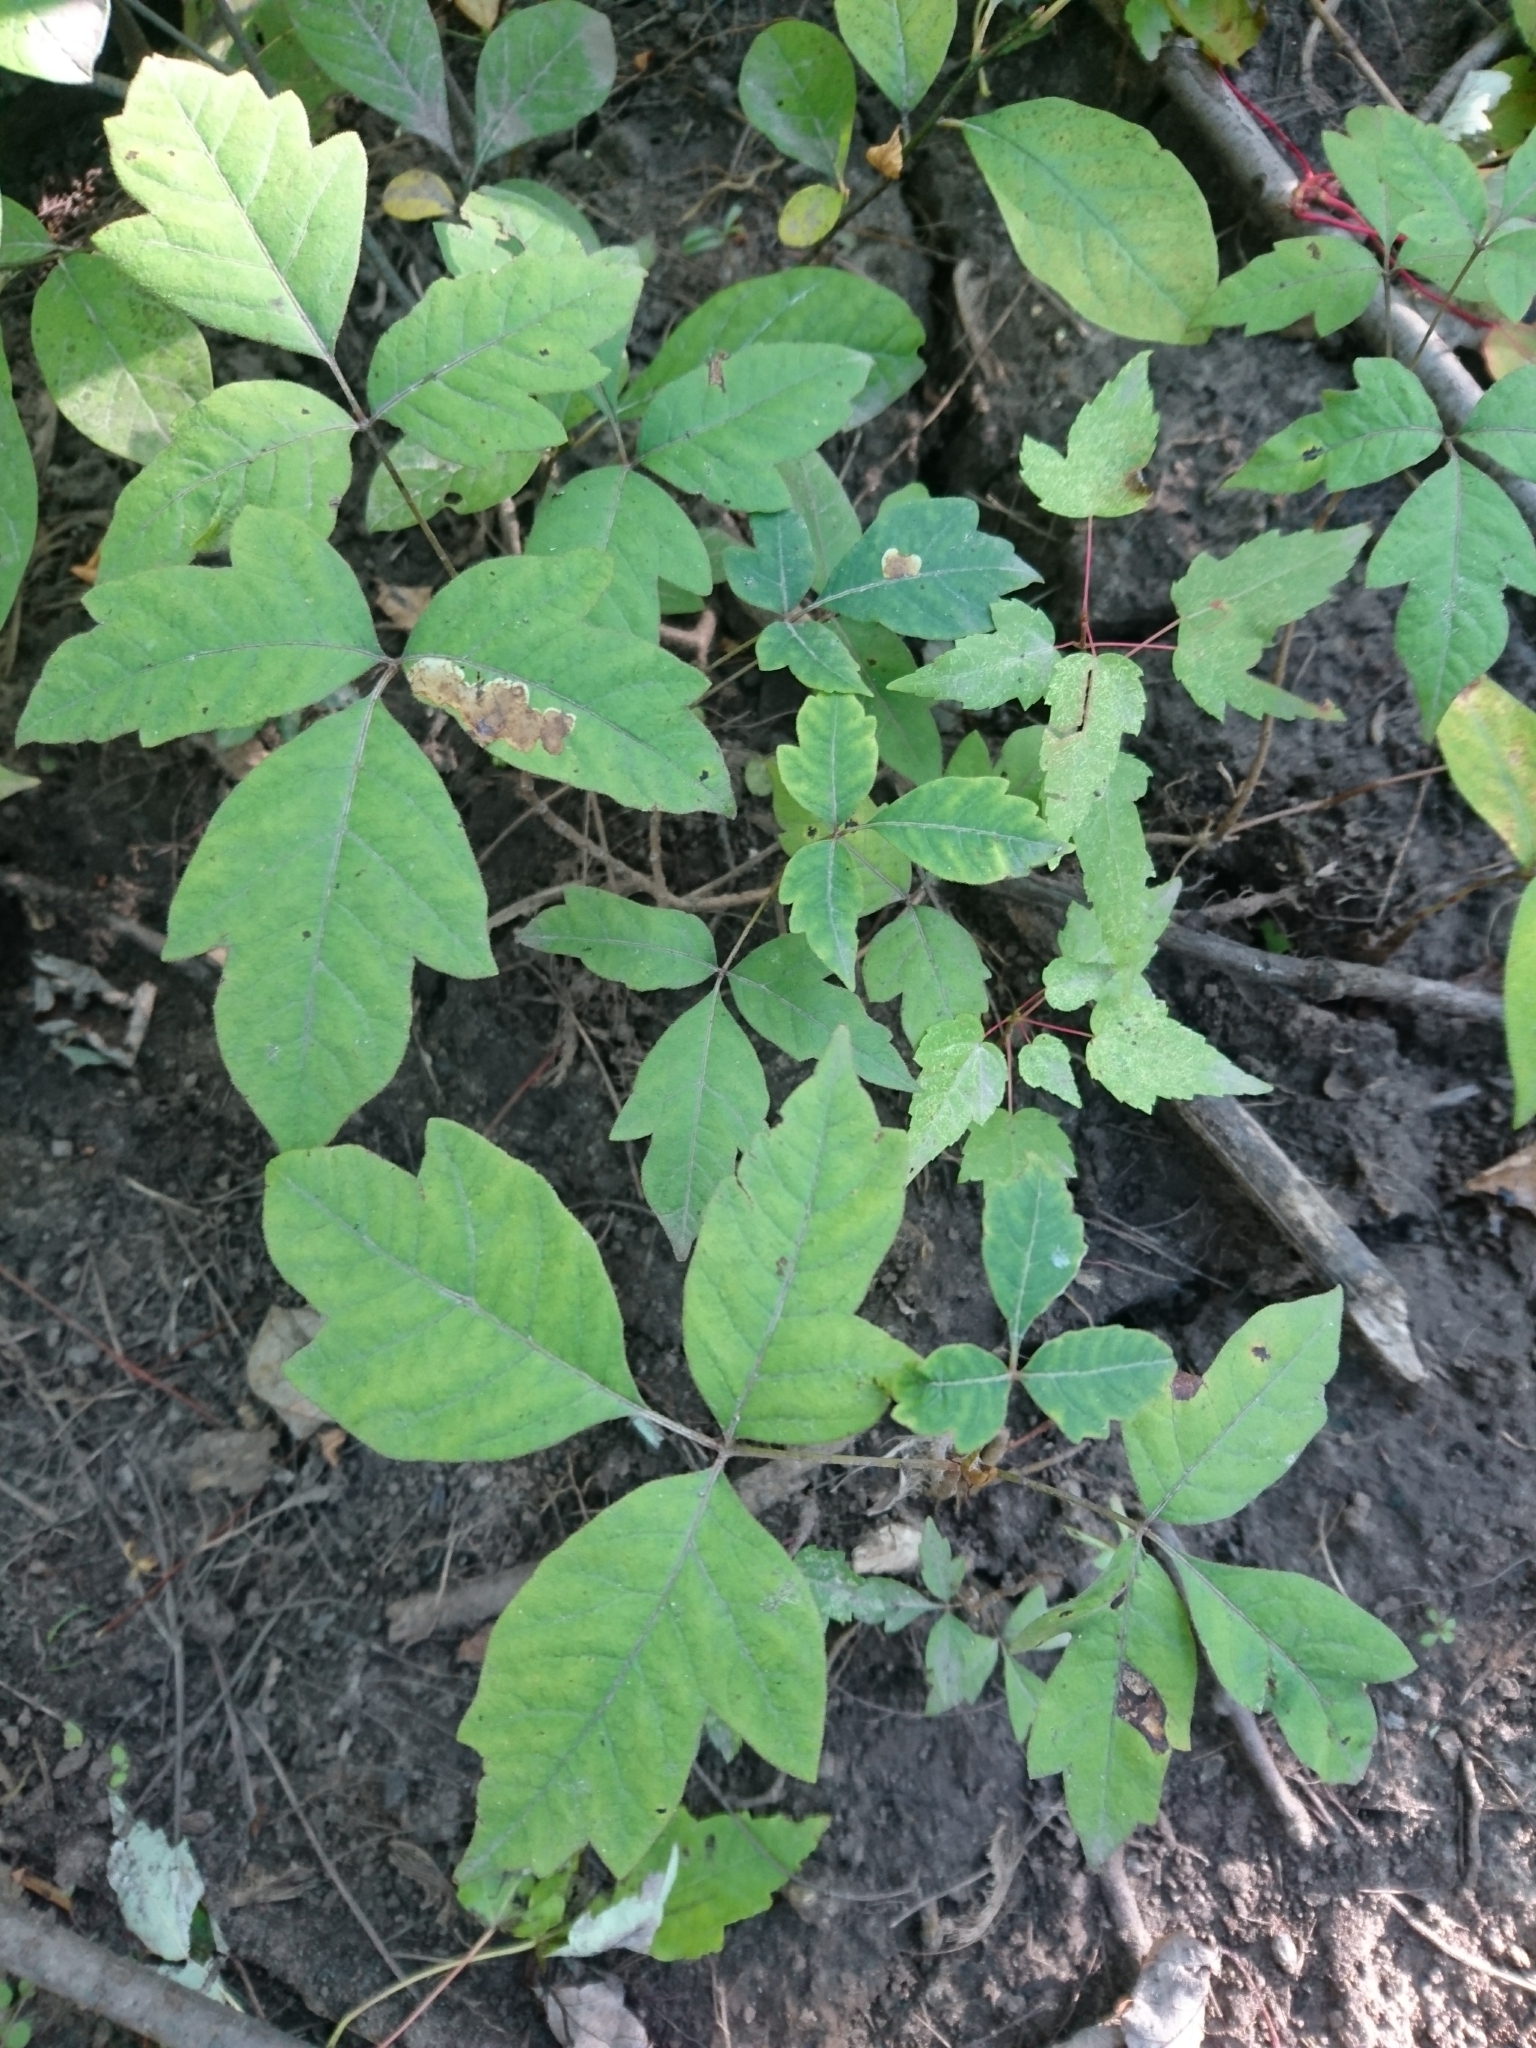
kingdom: Plantae
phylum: Tracheophyta
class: Magnoliopsida
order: Sapindales
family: Anacardiaceae
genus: Toxicodendron
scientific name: Toxicodendron radicans
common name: Poison ivy
